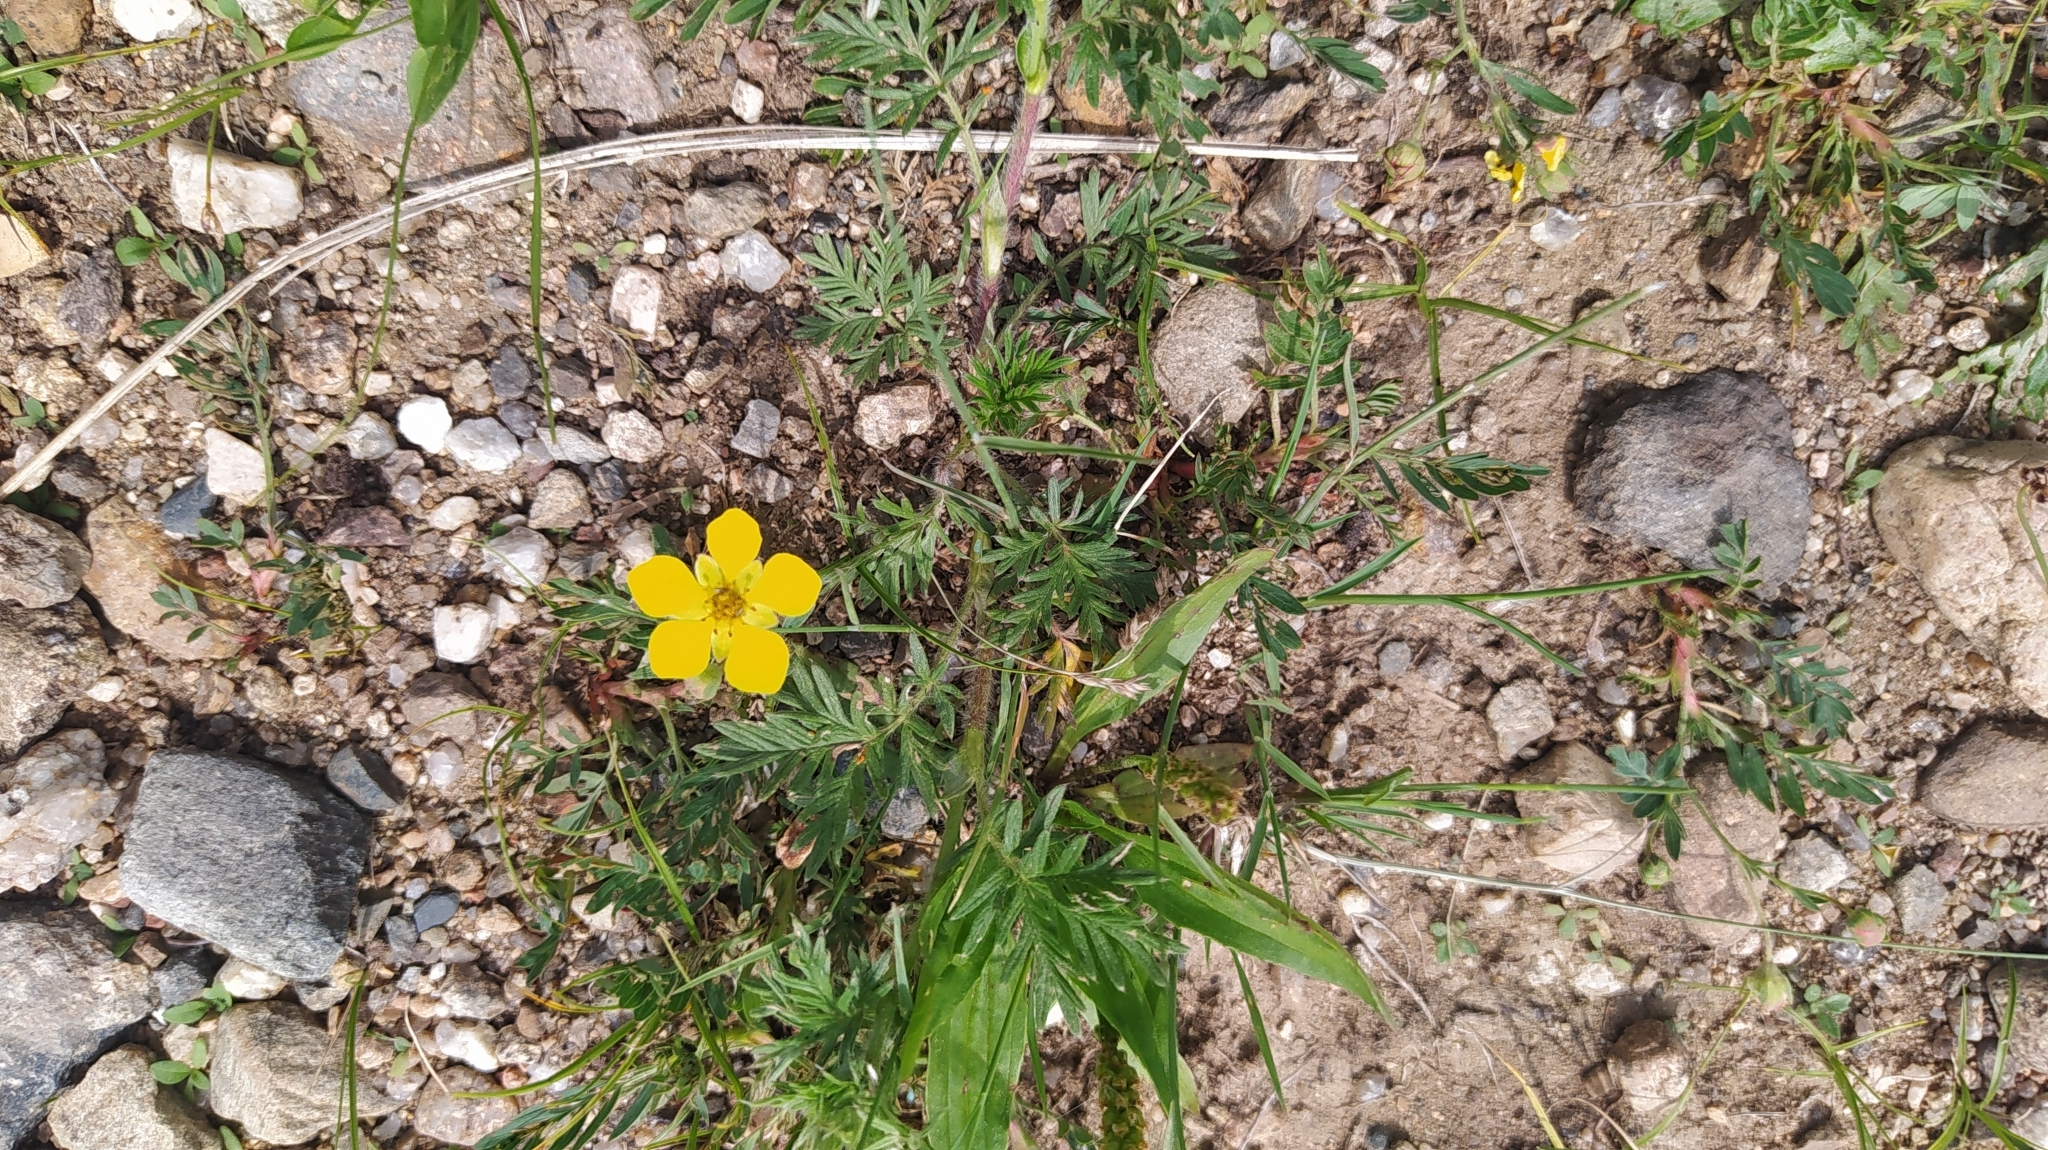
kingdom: Plantae
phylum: Tracheophyta
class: Magnoliopsida
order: Rosales
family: Rosaceae
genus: Potentilla
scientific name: Potentilla tergemina
